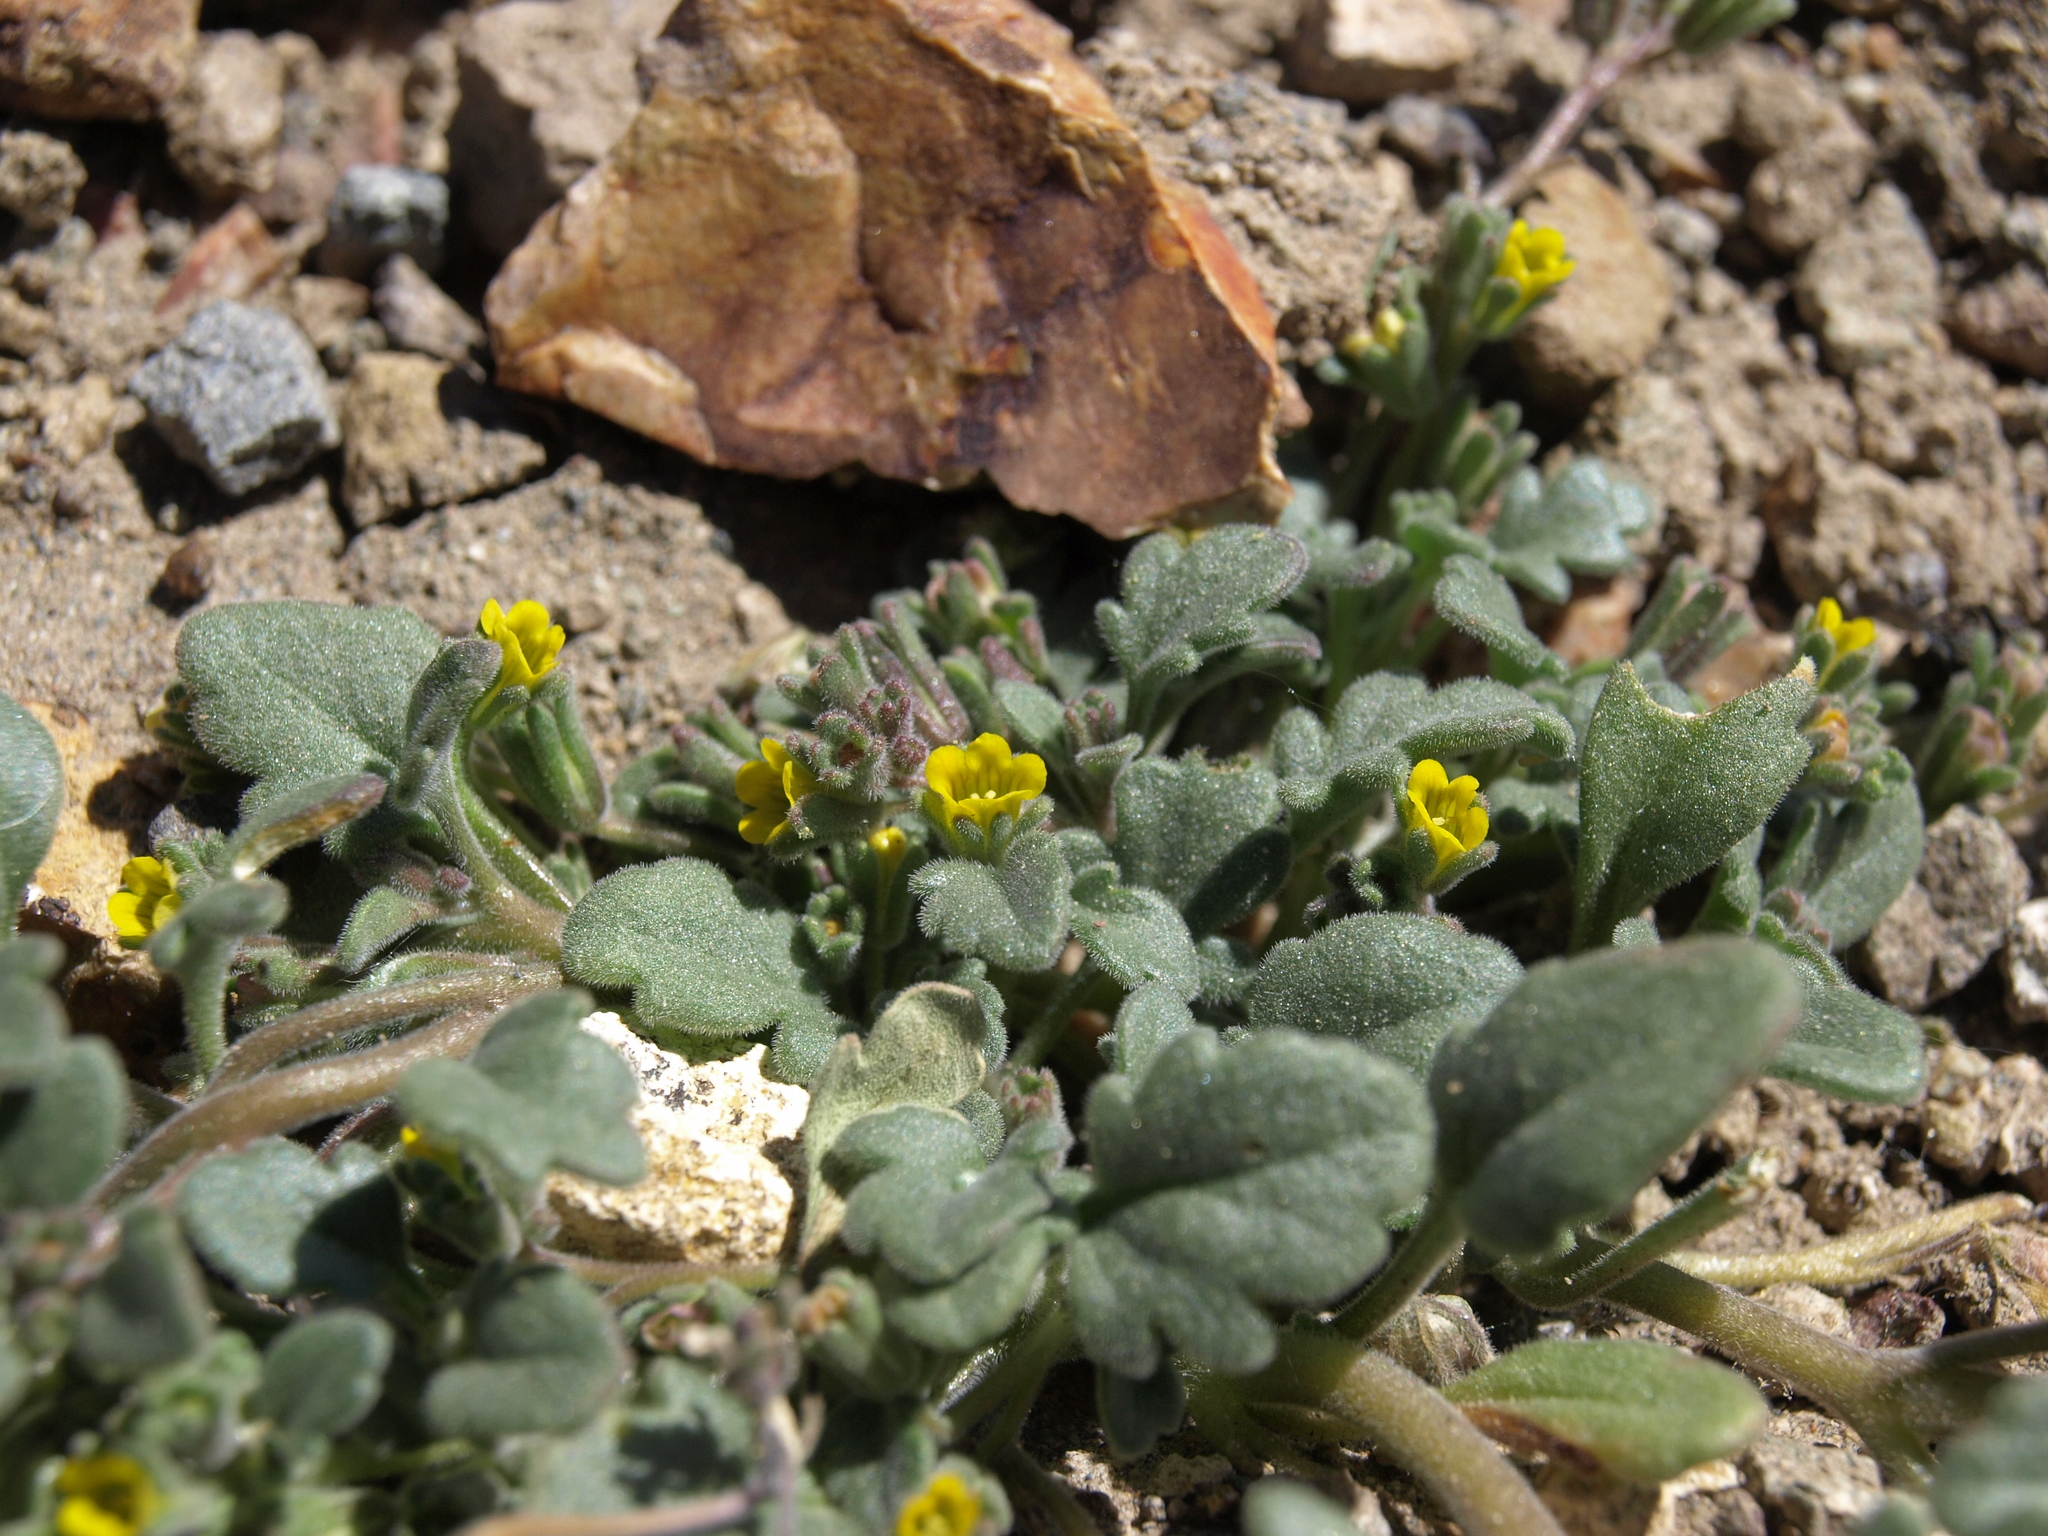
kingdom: Plantae
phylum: Tracheophyta
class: Magnoliopsida
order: Boraginales
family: Hydrophyllaceae
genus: Phacelia
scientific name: Phacelia monoensis
